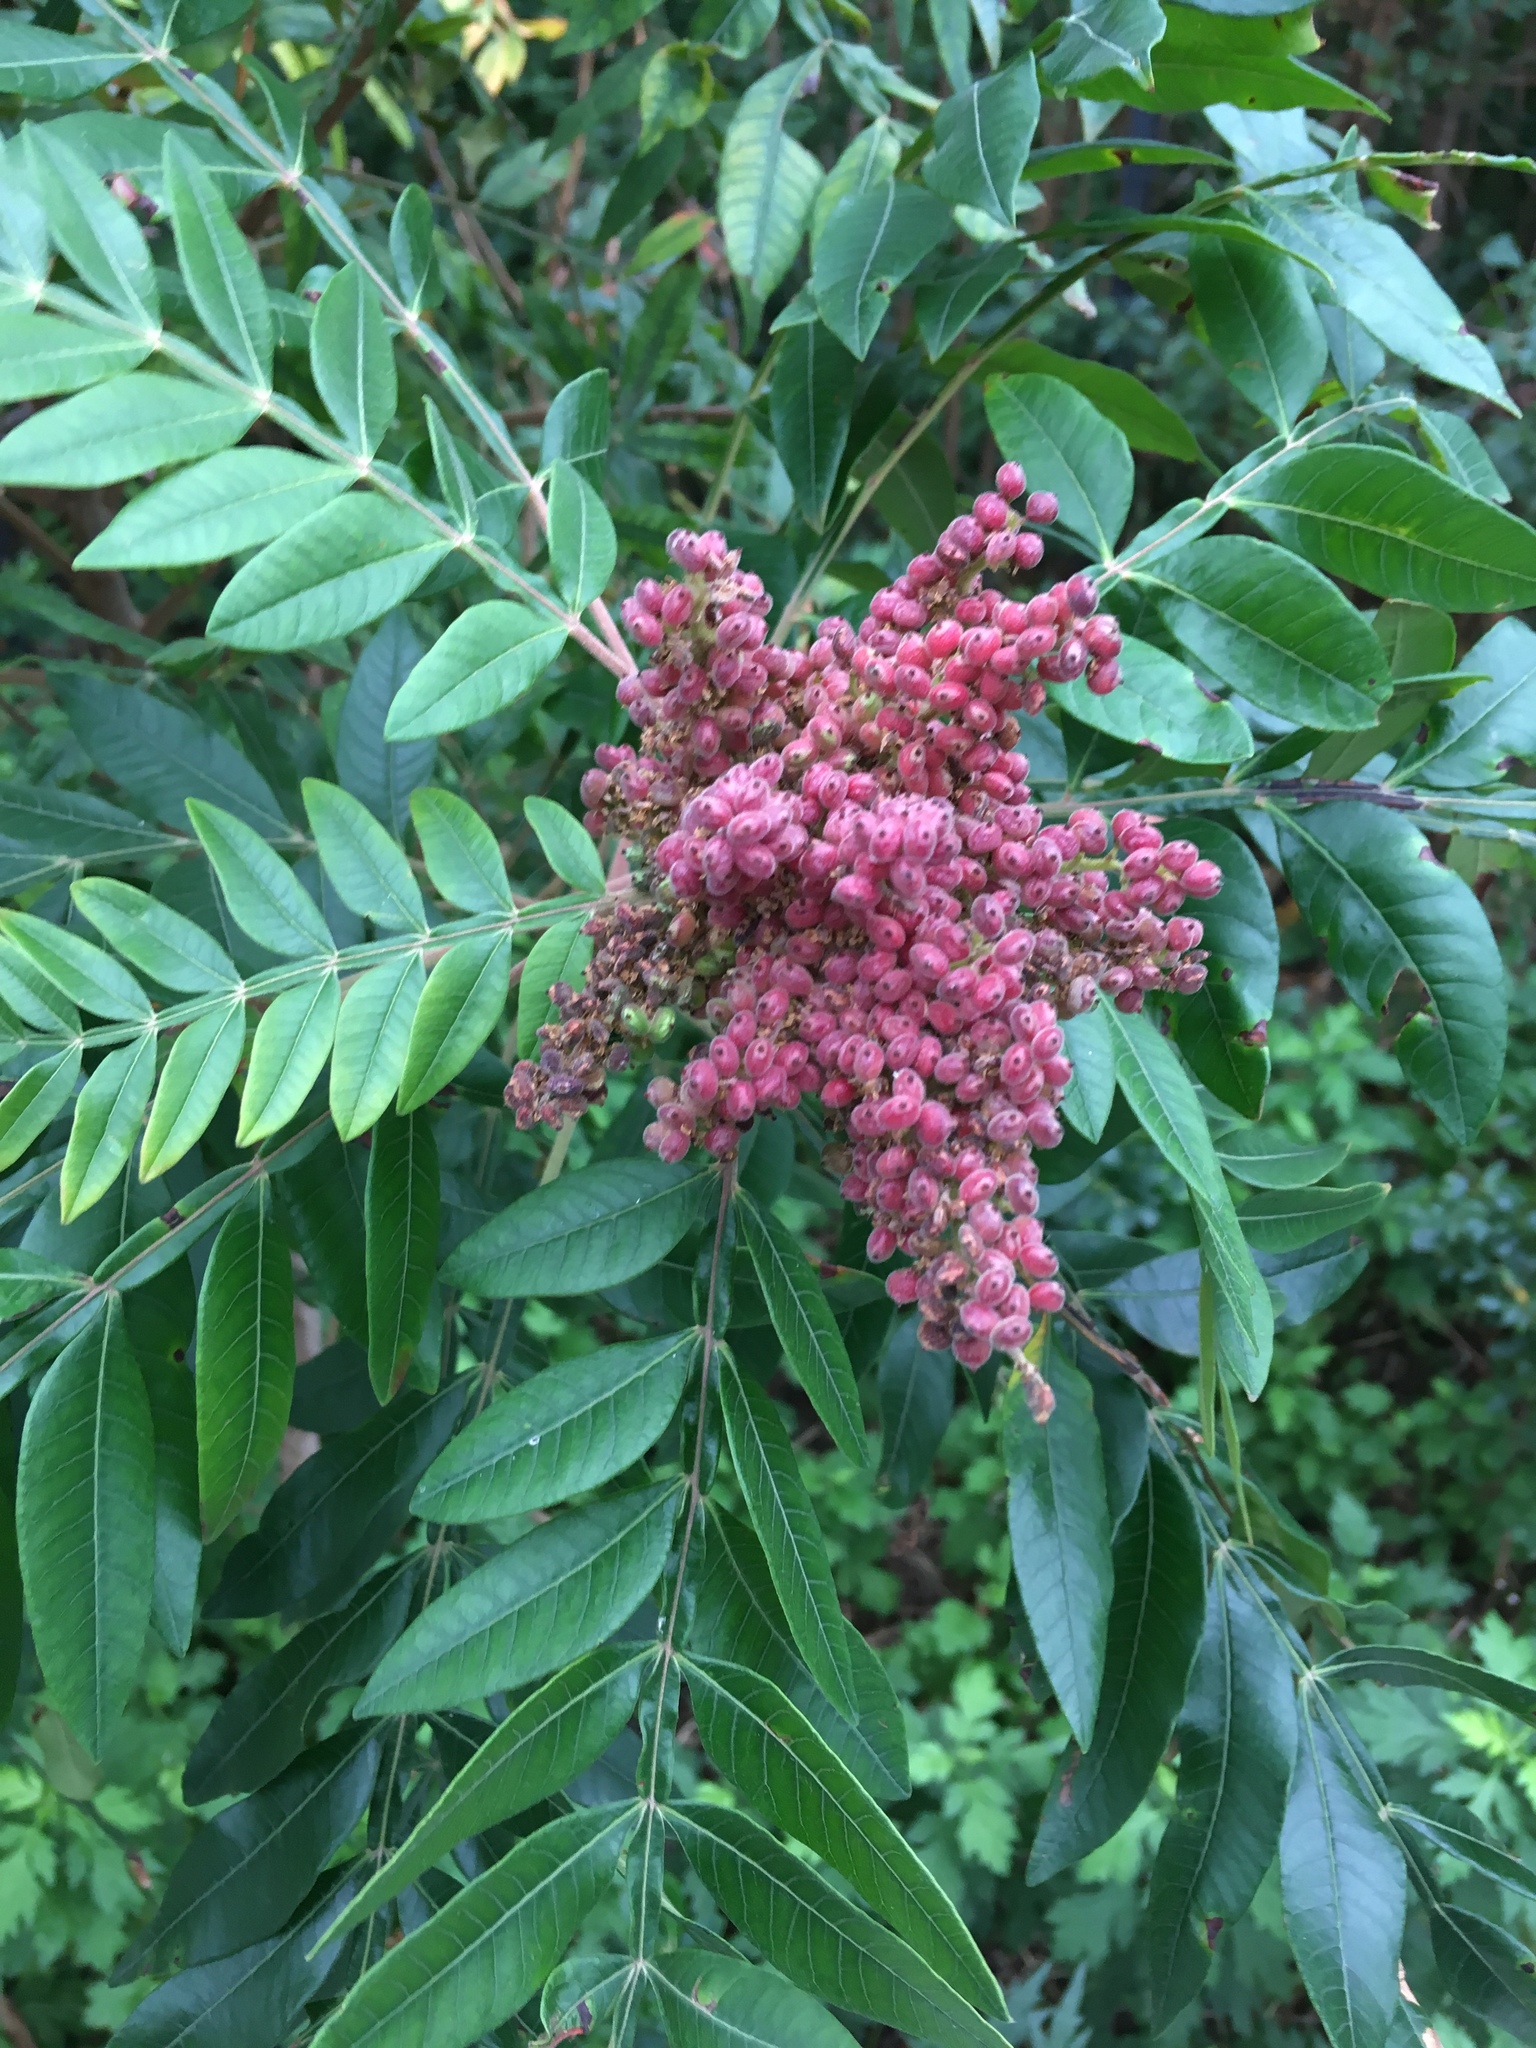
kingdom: Plantae
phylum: Tracheophyta
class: Magnoliopsida
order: Sapindales
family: Anacardiaceae
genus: Rhus
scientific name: Rhus copallina
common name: Shining sumac
